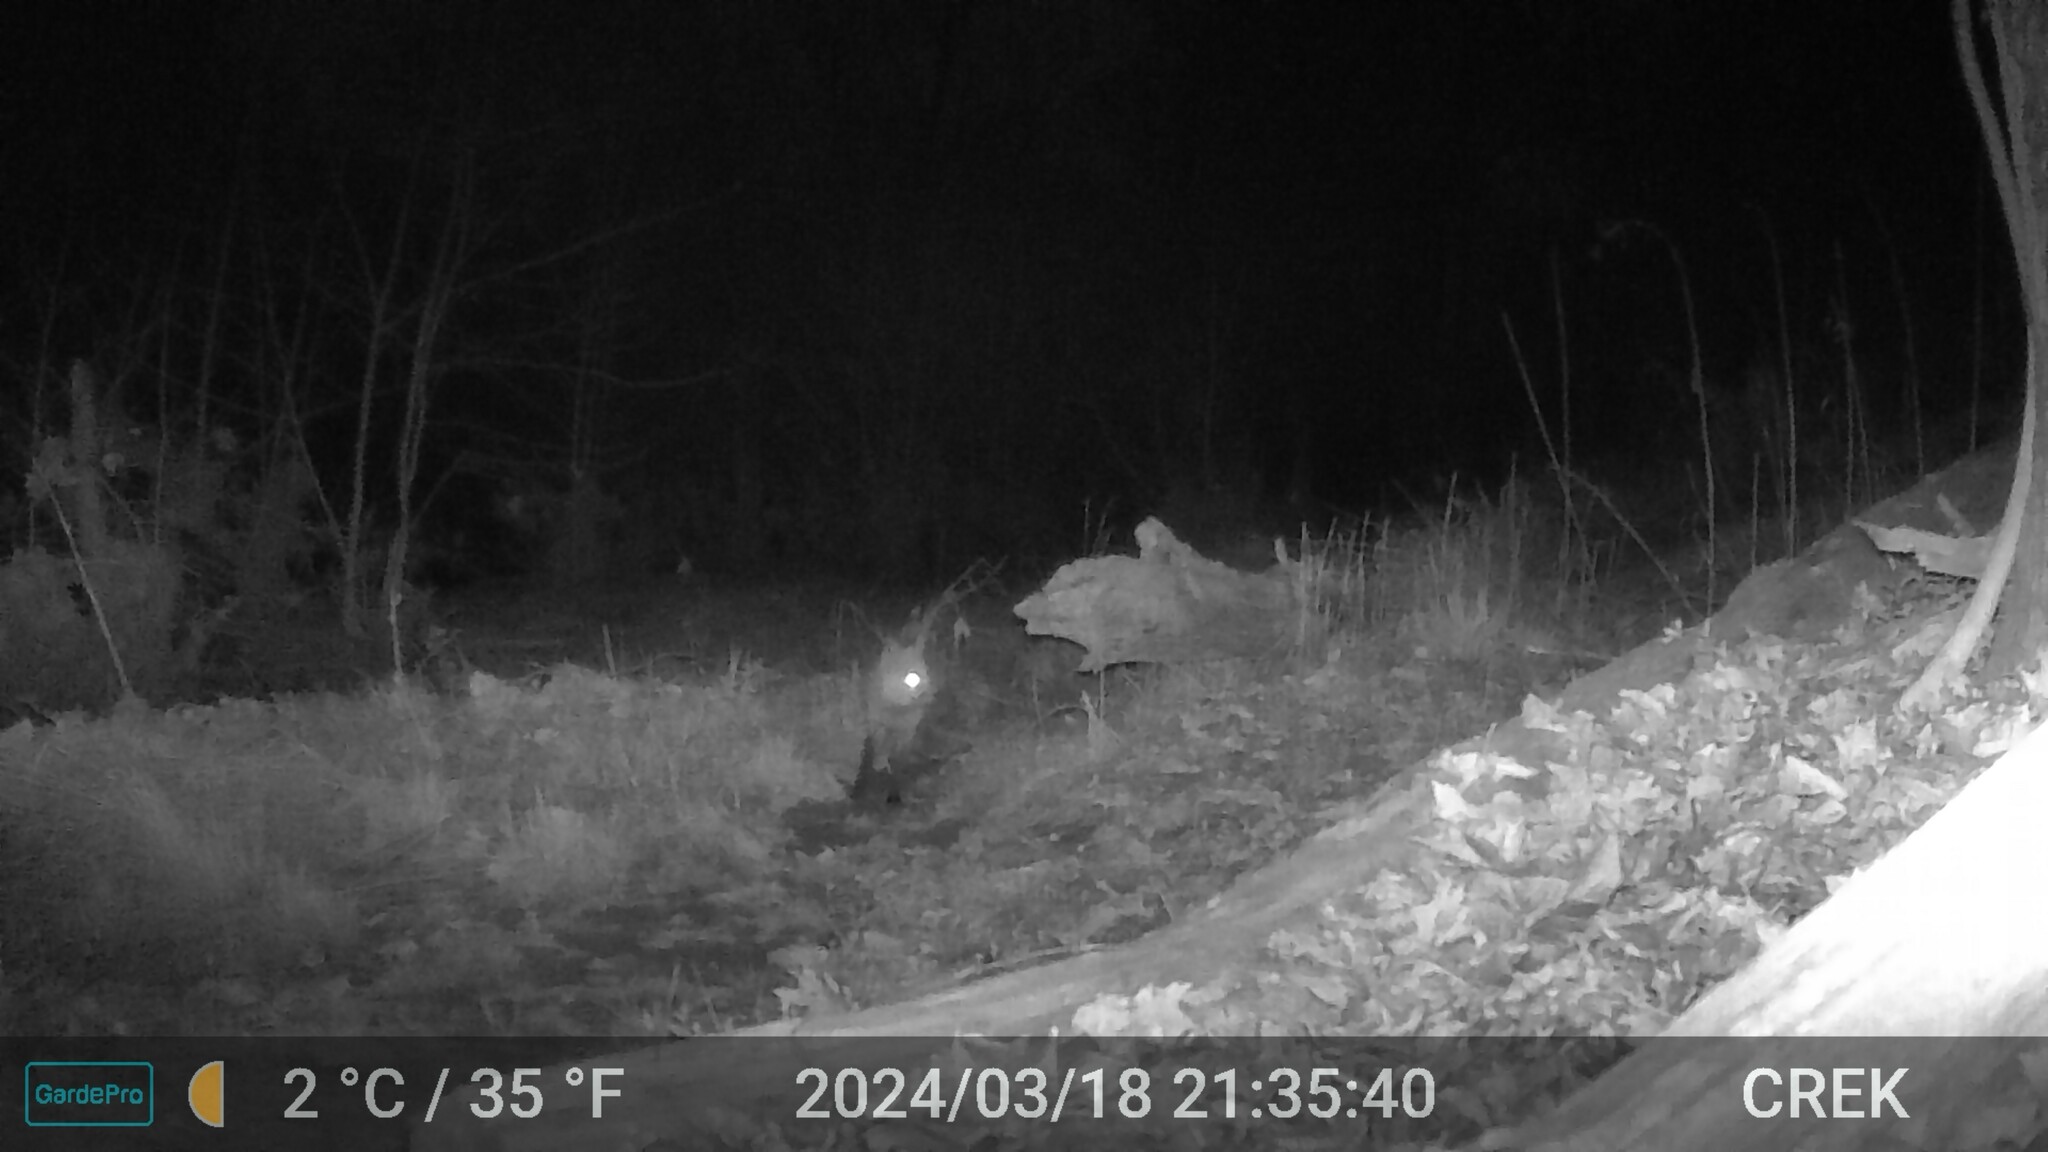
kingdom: Animalia
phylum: Chordata
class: Mammalia
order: Carnivora
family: Canidae
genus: Vulpes
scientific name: Vulpes vulpes
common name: Red fox
